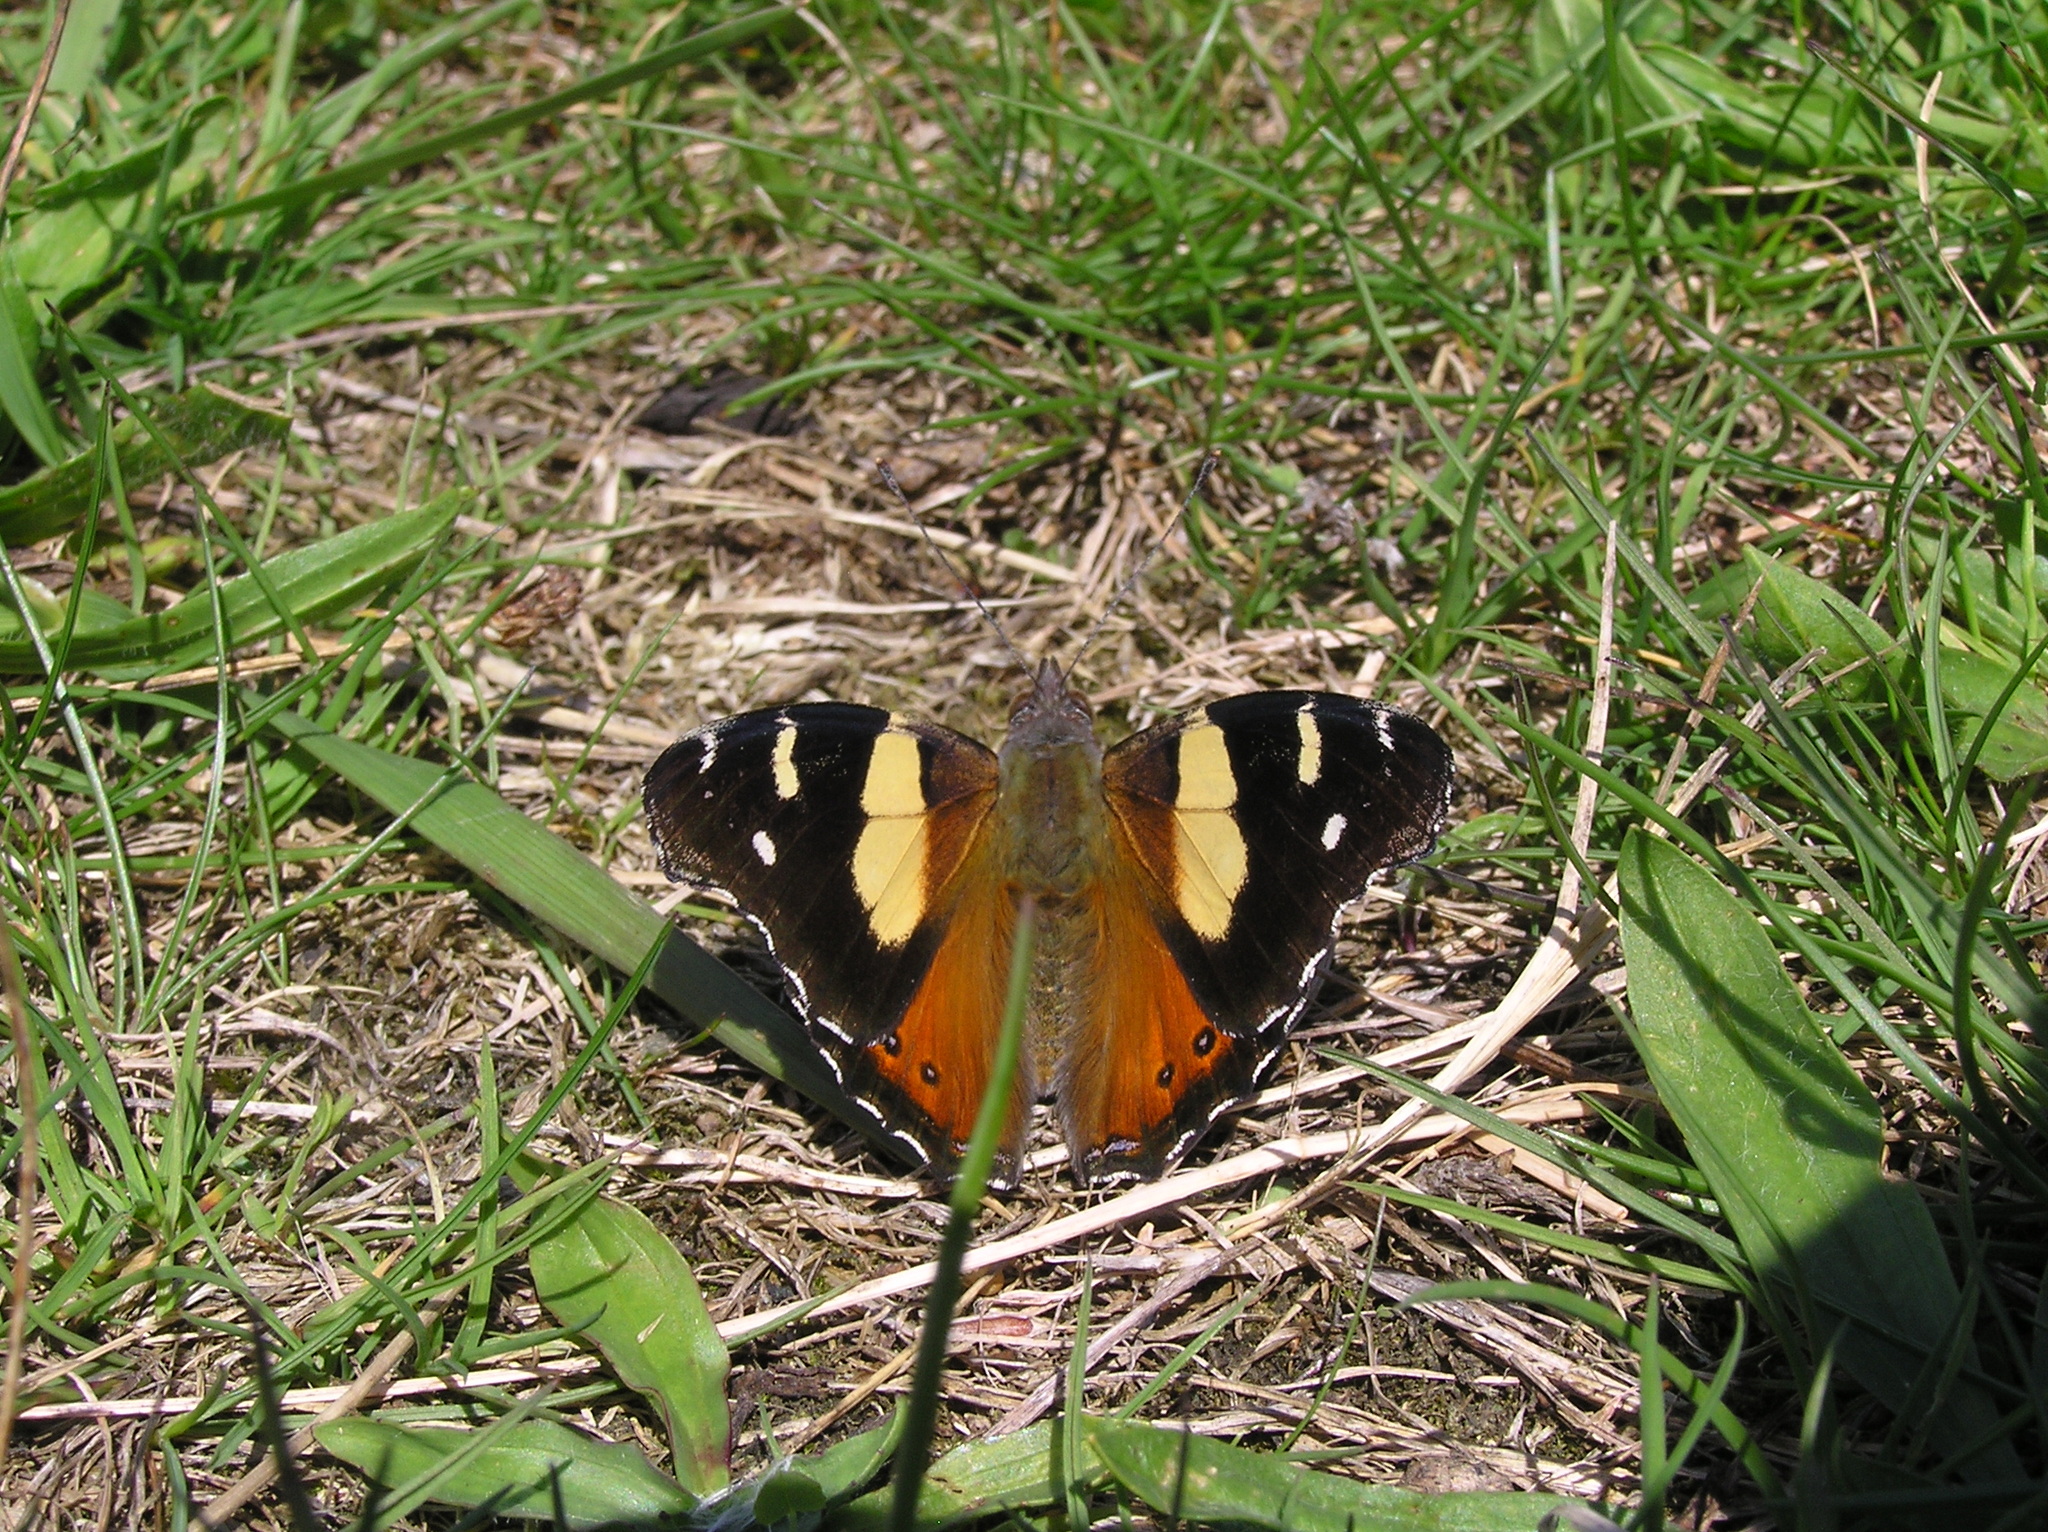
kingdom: Animalia
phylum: Arthropoda
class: Insecta
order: Lepidoptera
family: Nymphalidae
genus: Vanessa
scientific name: Vanessa itea
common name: Yellow admiral
